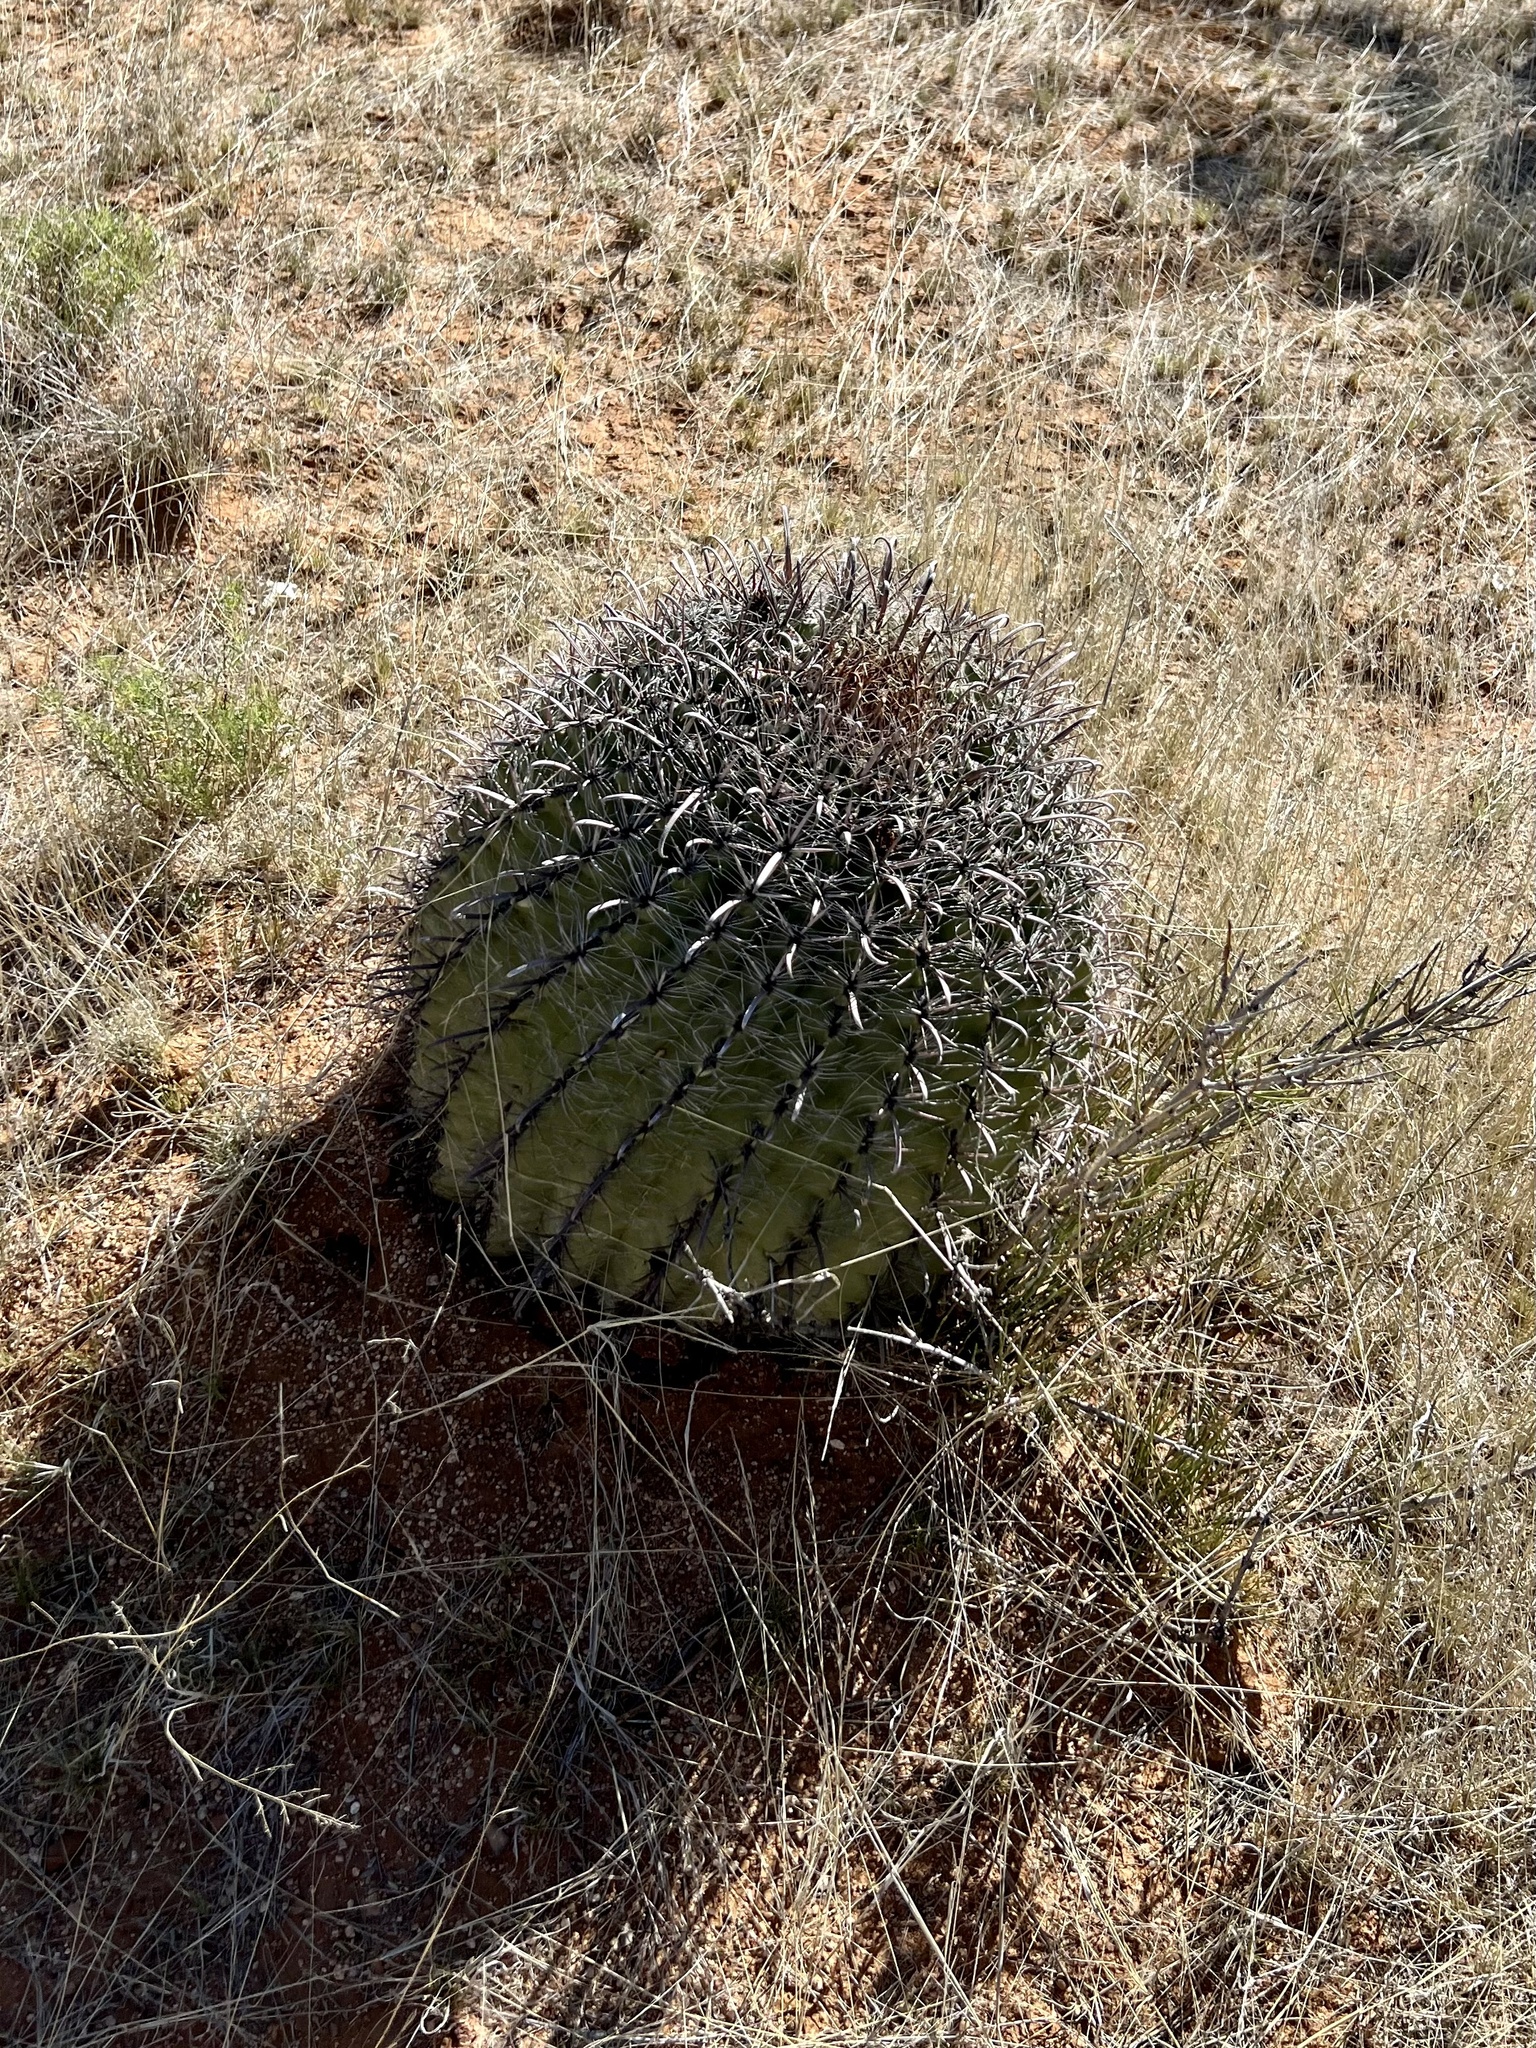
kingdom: Plantae
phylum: Tracheophyta
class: Magnoliopsida
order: Caryophyllales
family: Cactaceae
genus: Ferocactus
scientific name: Ferocactus wislizeni
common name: Candy barrel cactus
